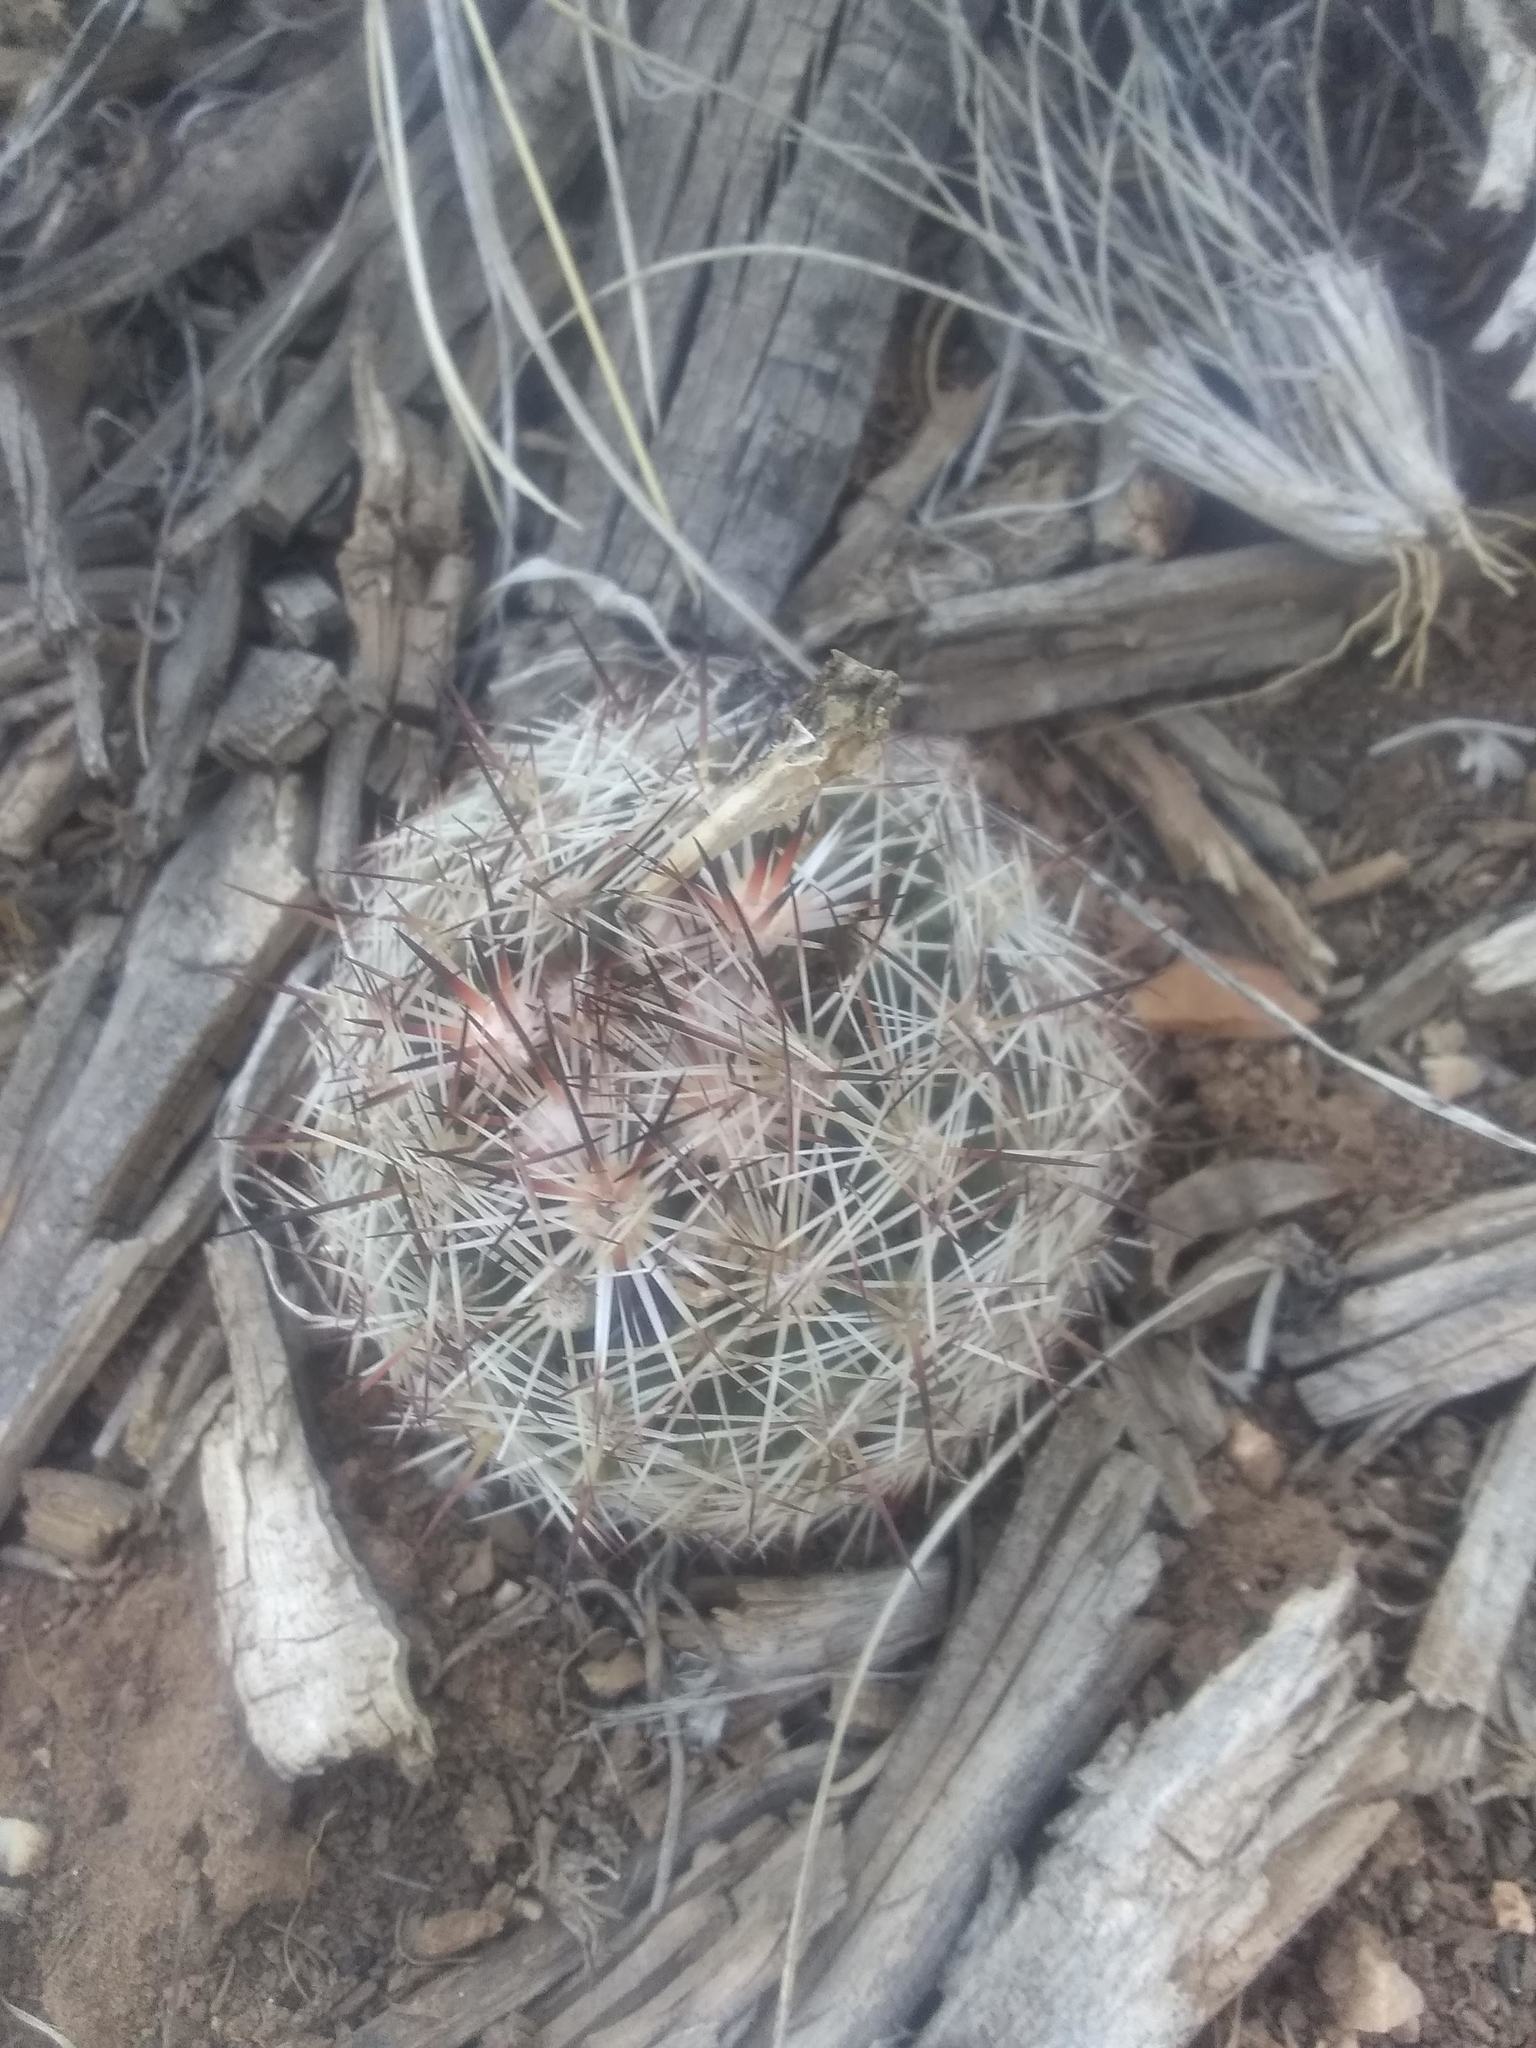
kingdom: Plantae
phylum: Tracheophyta
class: Magnoliopsida
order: Caryophyllales
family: Cactaceae
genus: Pelecyphora
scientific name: Pelecyphora vivipara
